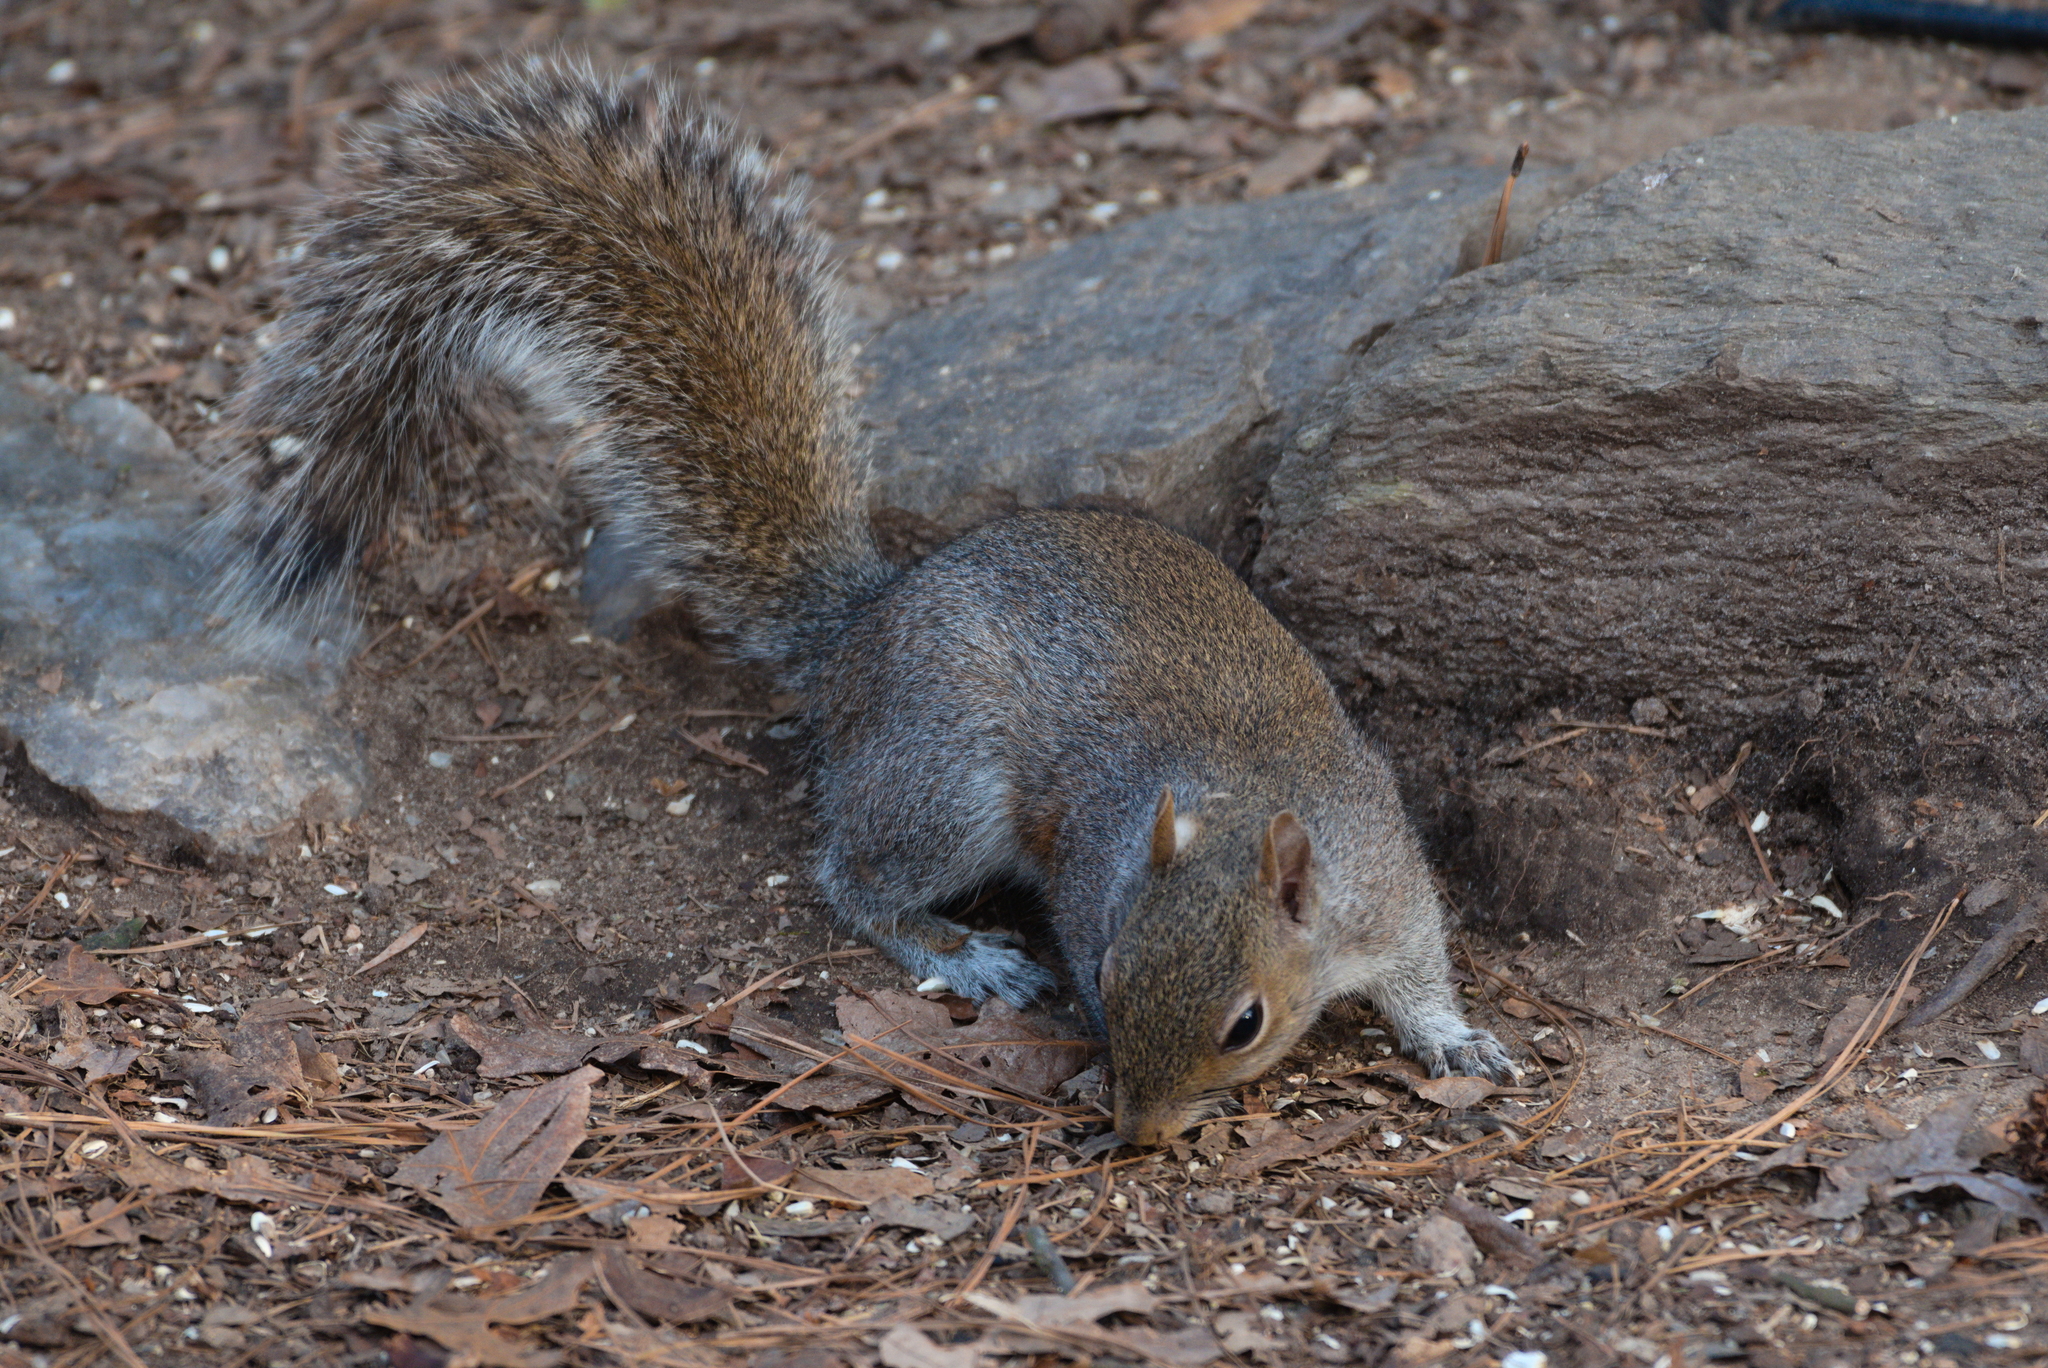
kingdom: Animalia
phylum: Chordata
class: Mammalia
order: Rodentia
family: Sciuridae
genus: Sciurus
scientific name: Sciurus carolinensis
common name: Eastern gray squirrel
